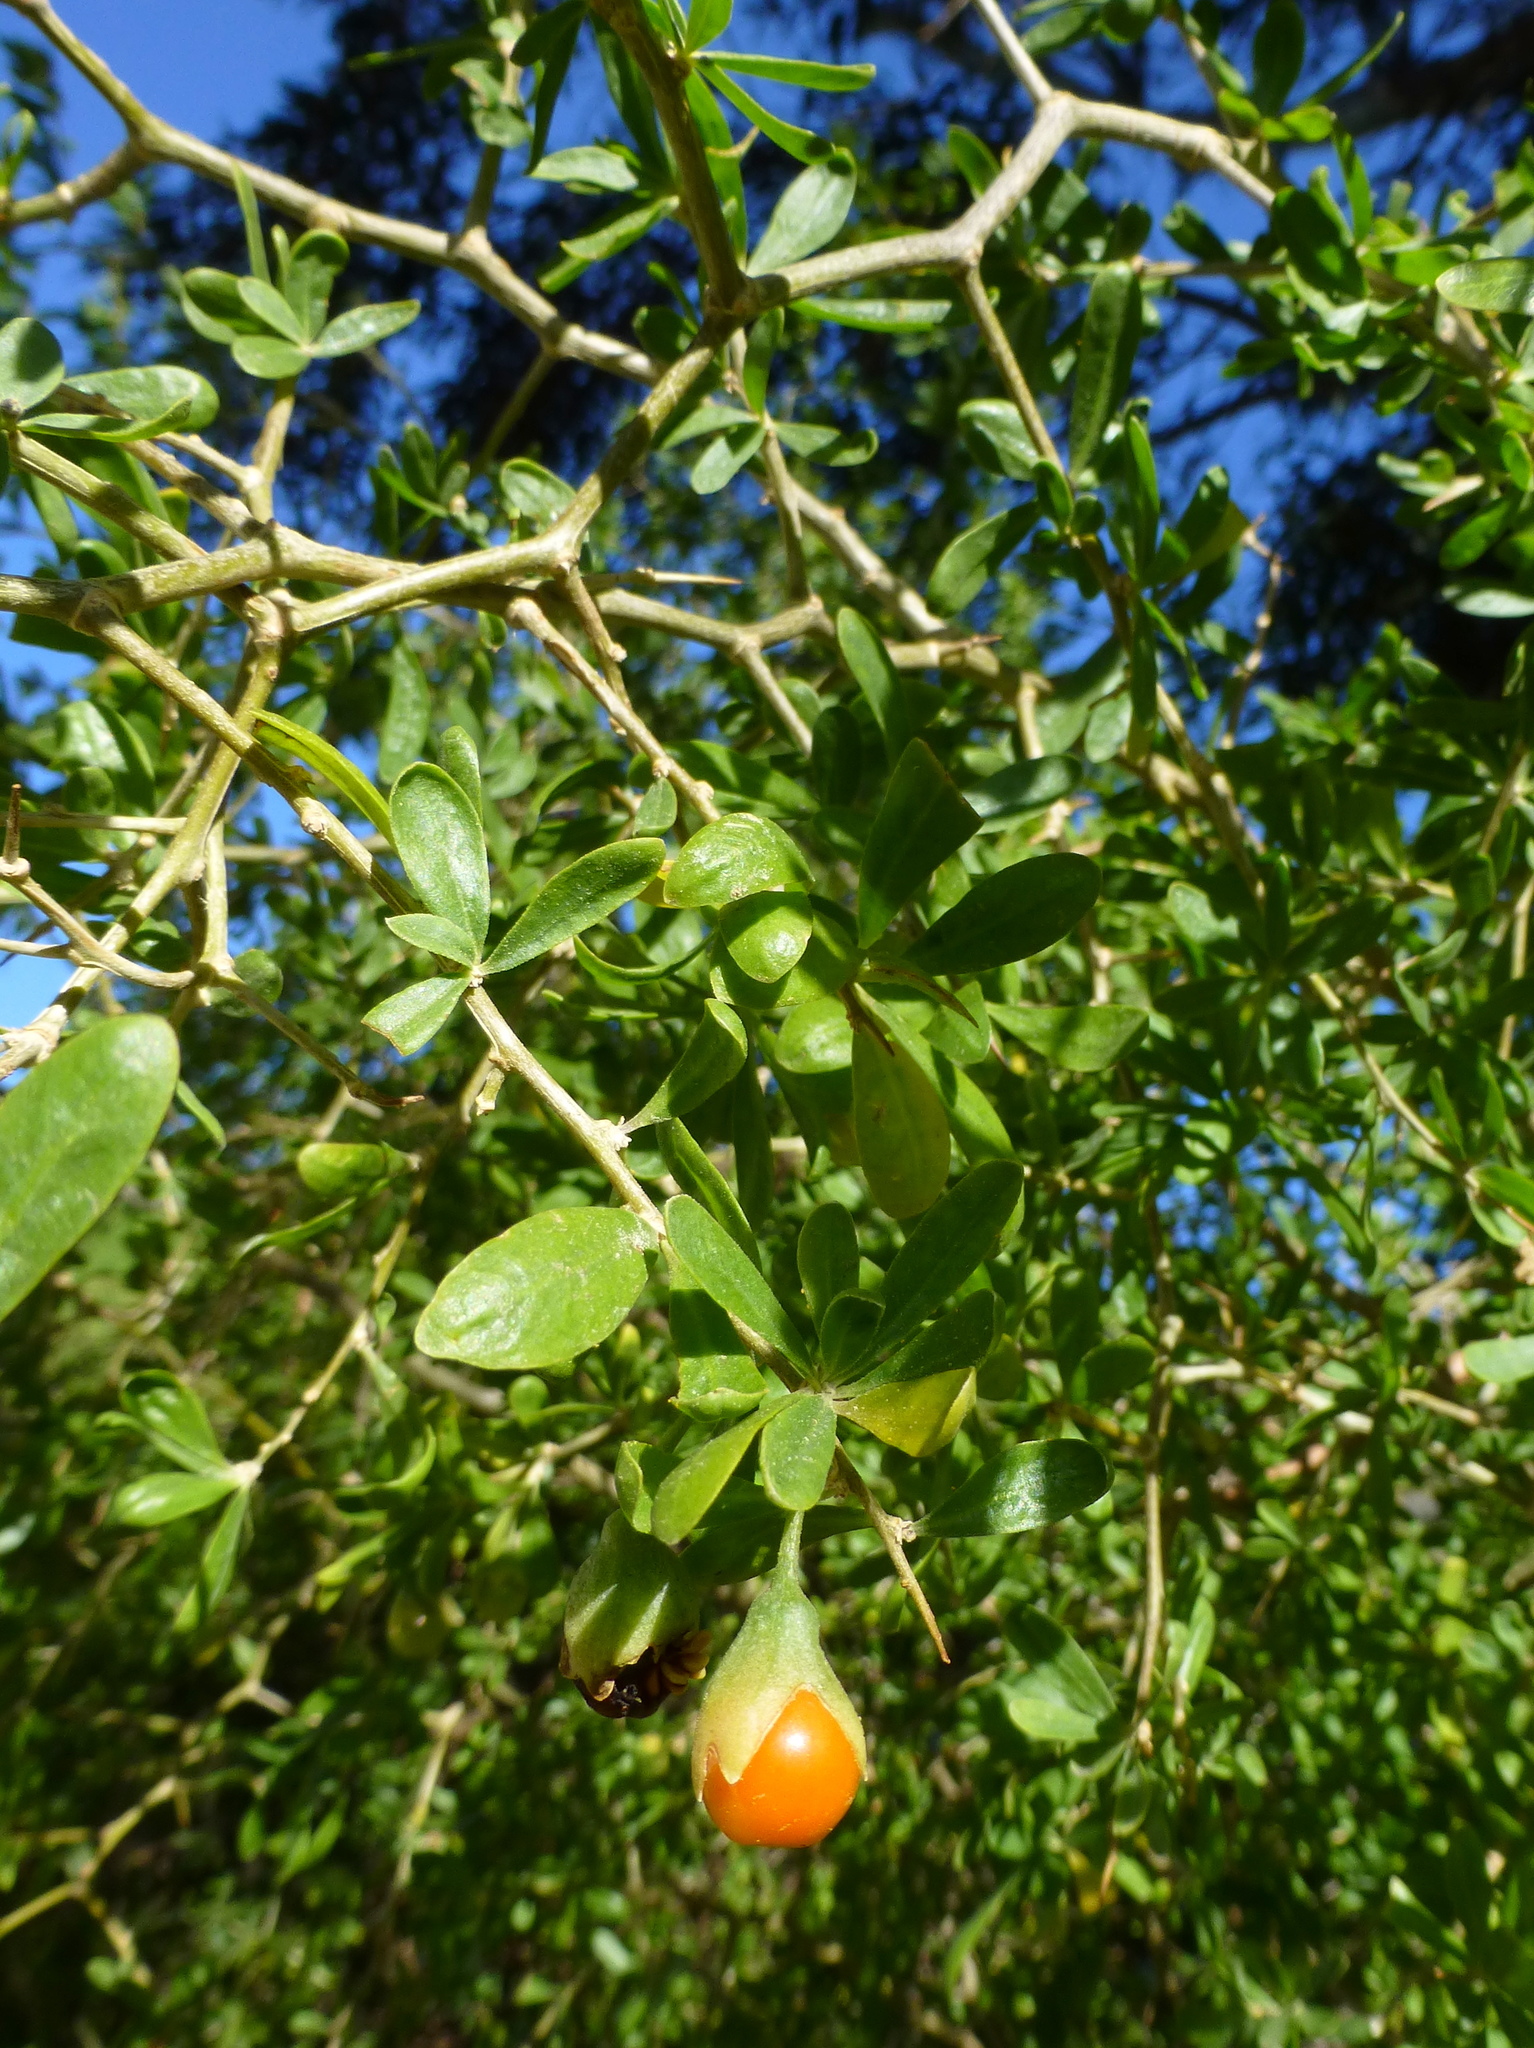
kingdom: Plantae
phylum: Tracheophyta
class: Magnoliopsida
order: Solanales
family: Solanaceae
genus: Lycium
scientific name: Lycium ferocissimum
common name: African boxthorn
